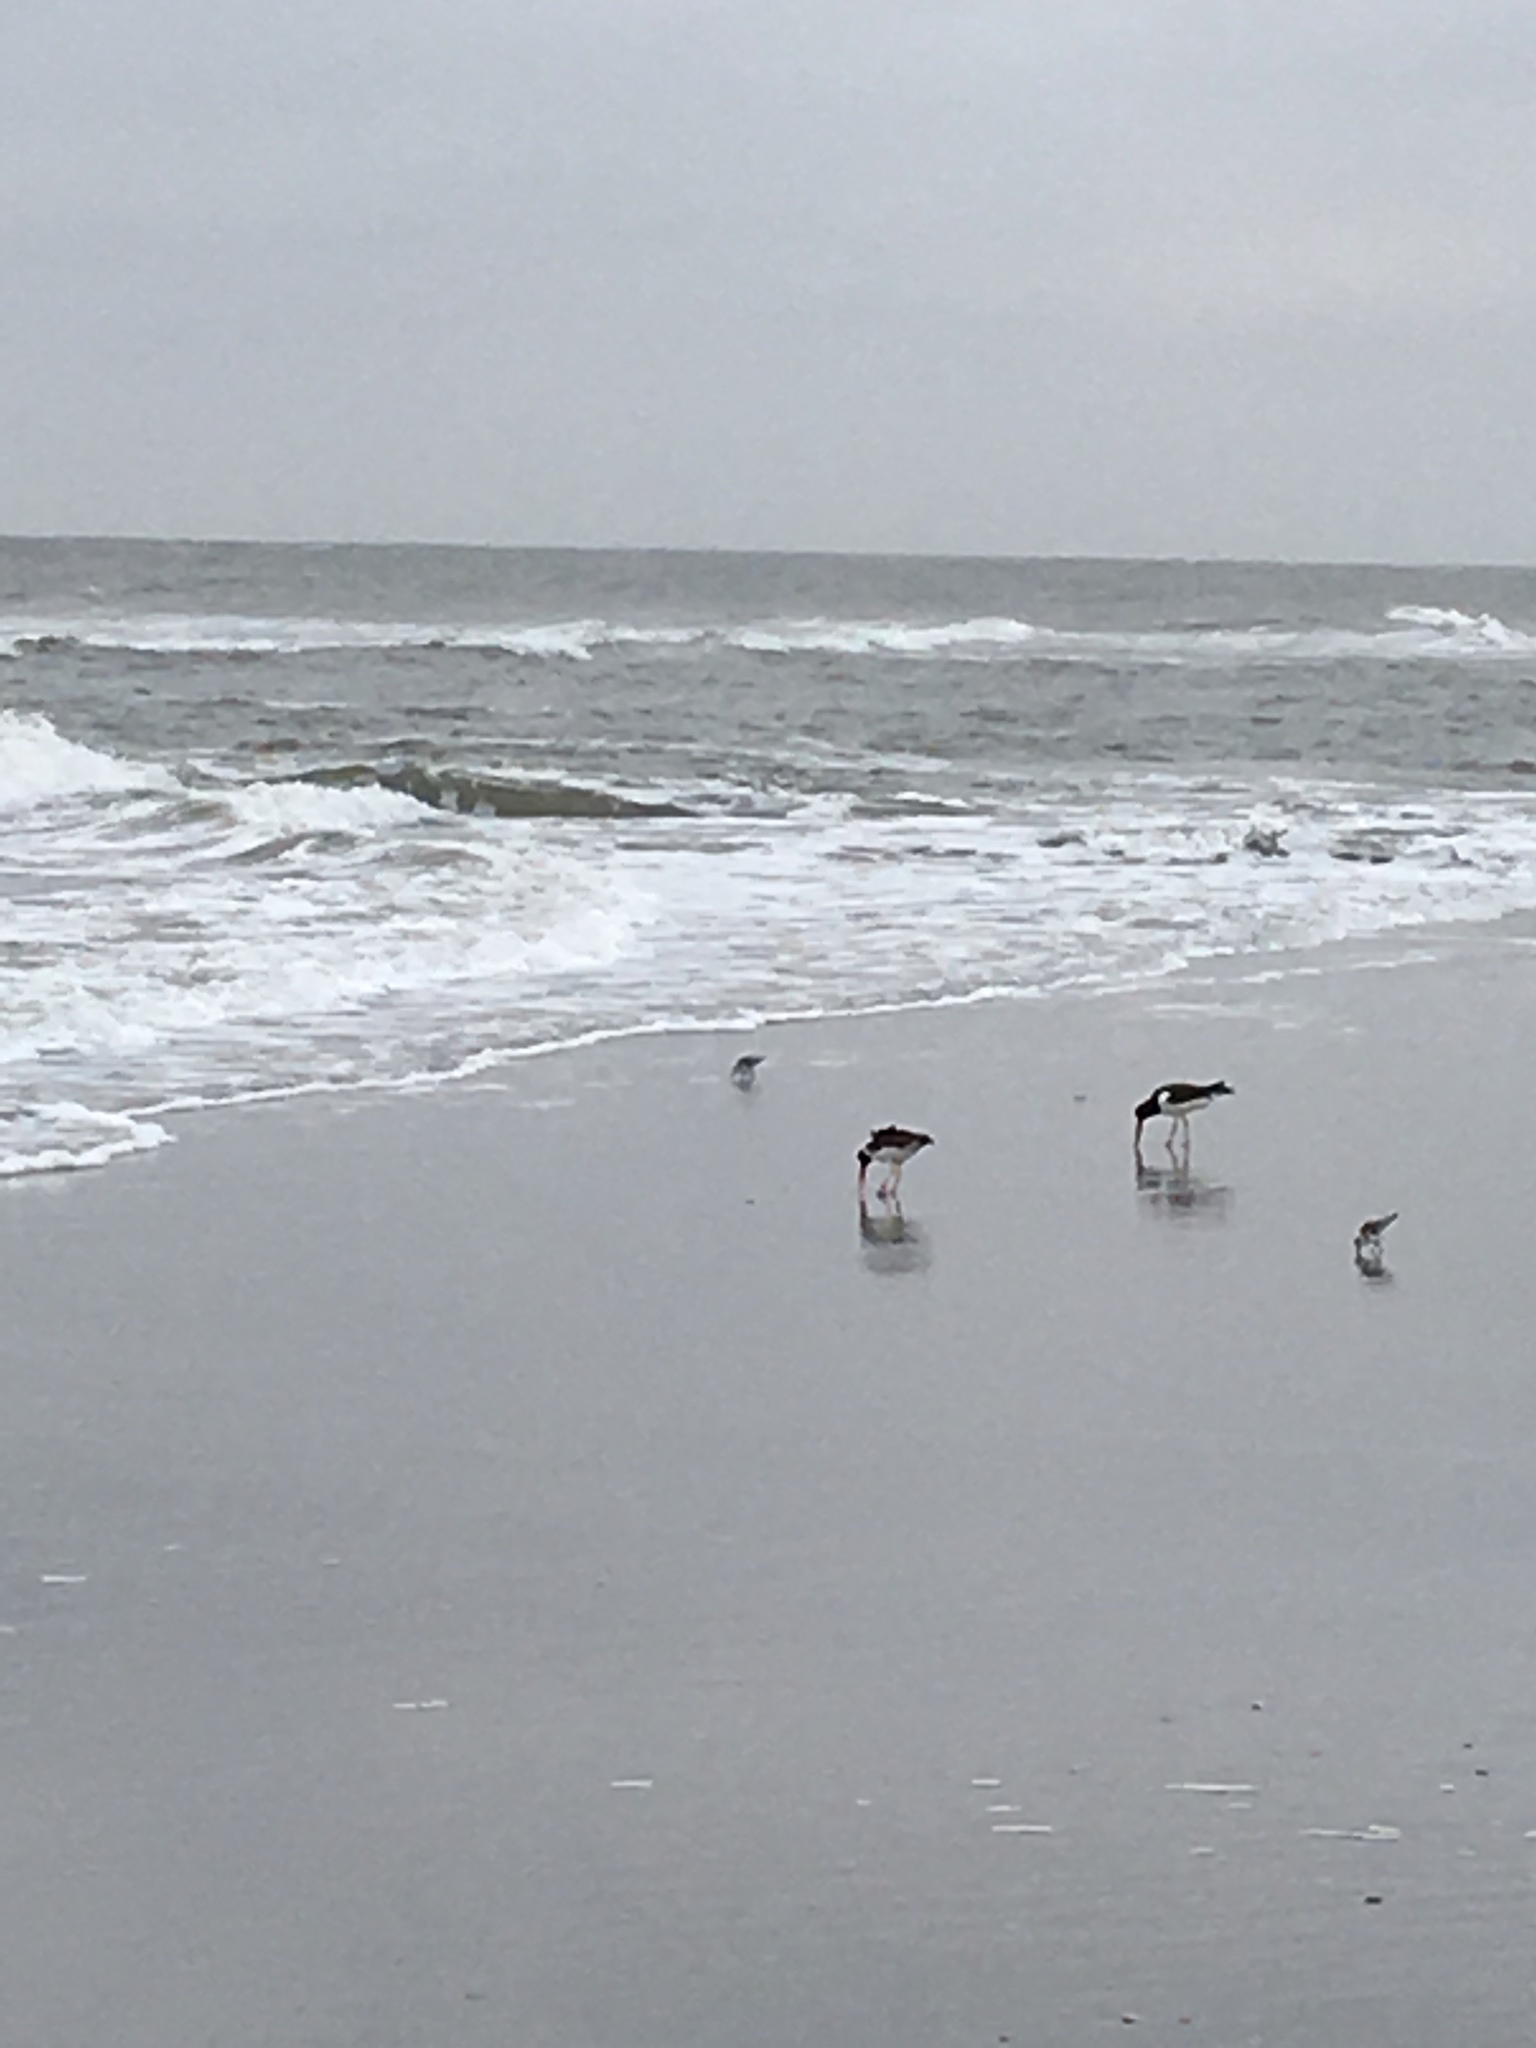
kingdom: Animalia
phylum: Chordata
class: Aves
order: Charadriiformes
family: Haematopodidae
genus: Haematopus
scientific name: Haematopus palliatus
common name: American oystercatcher
